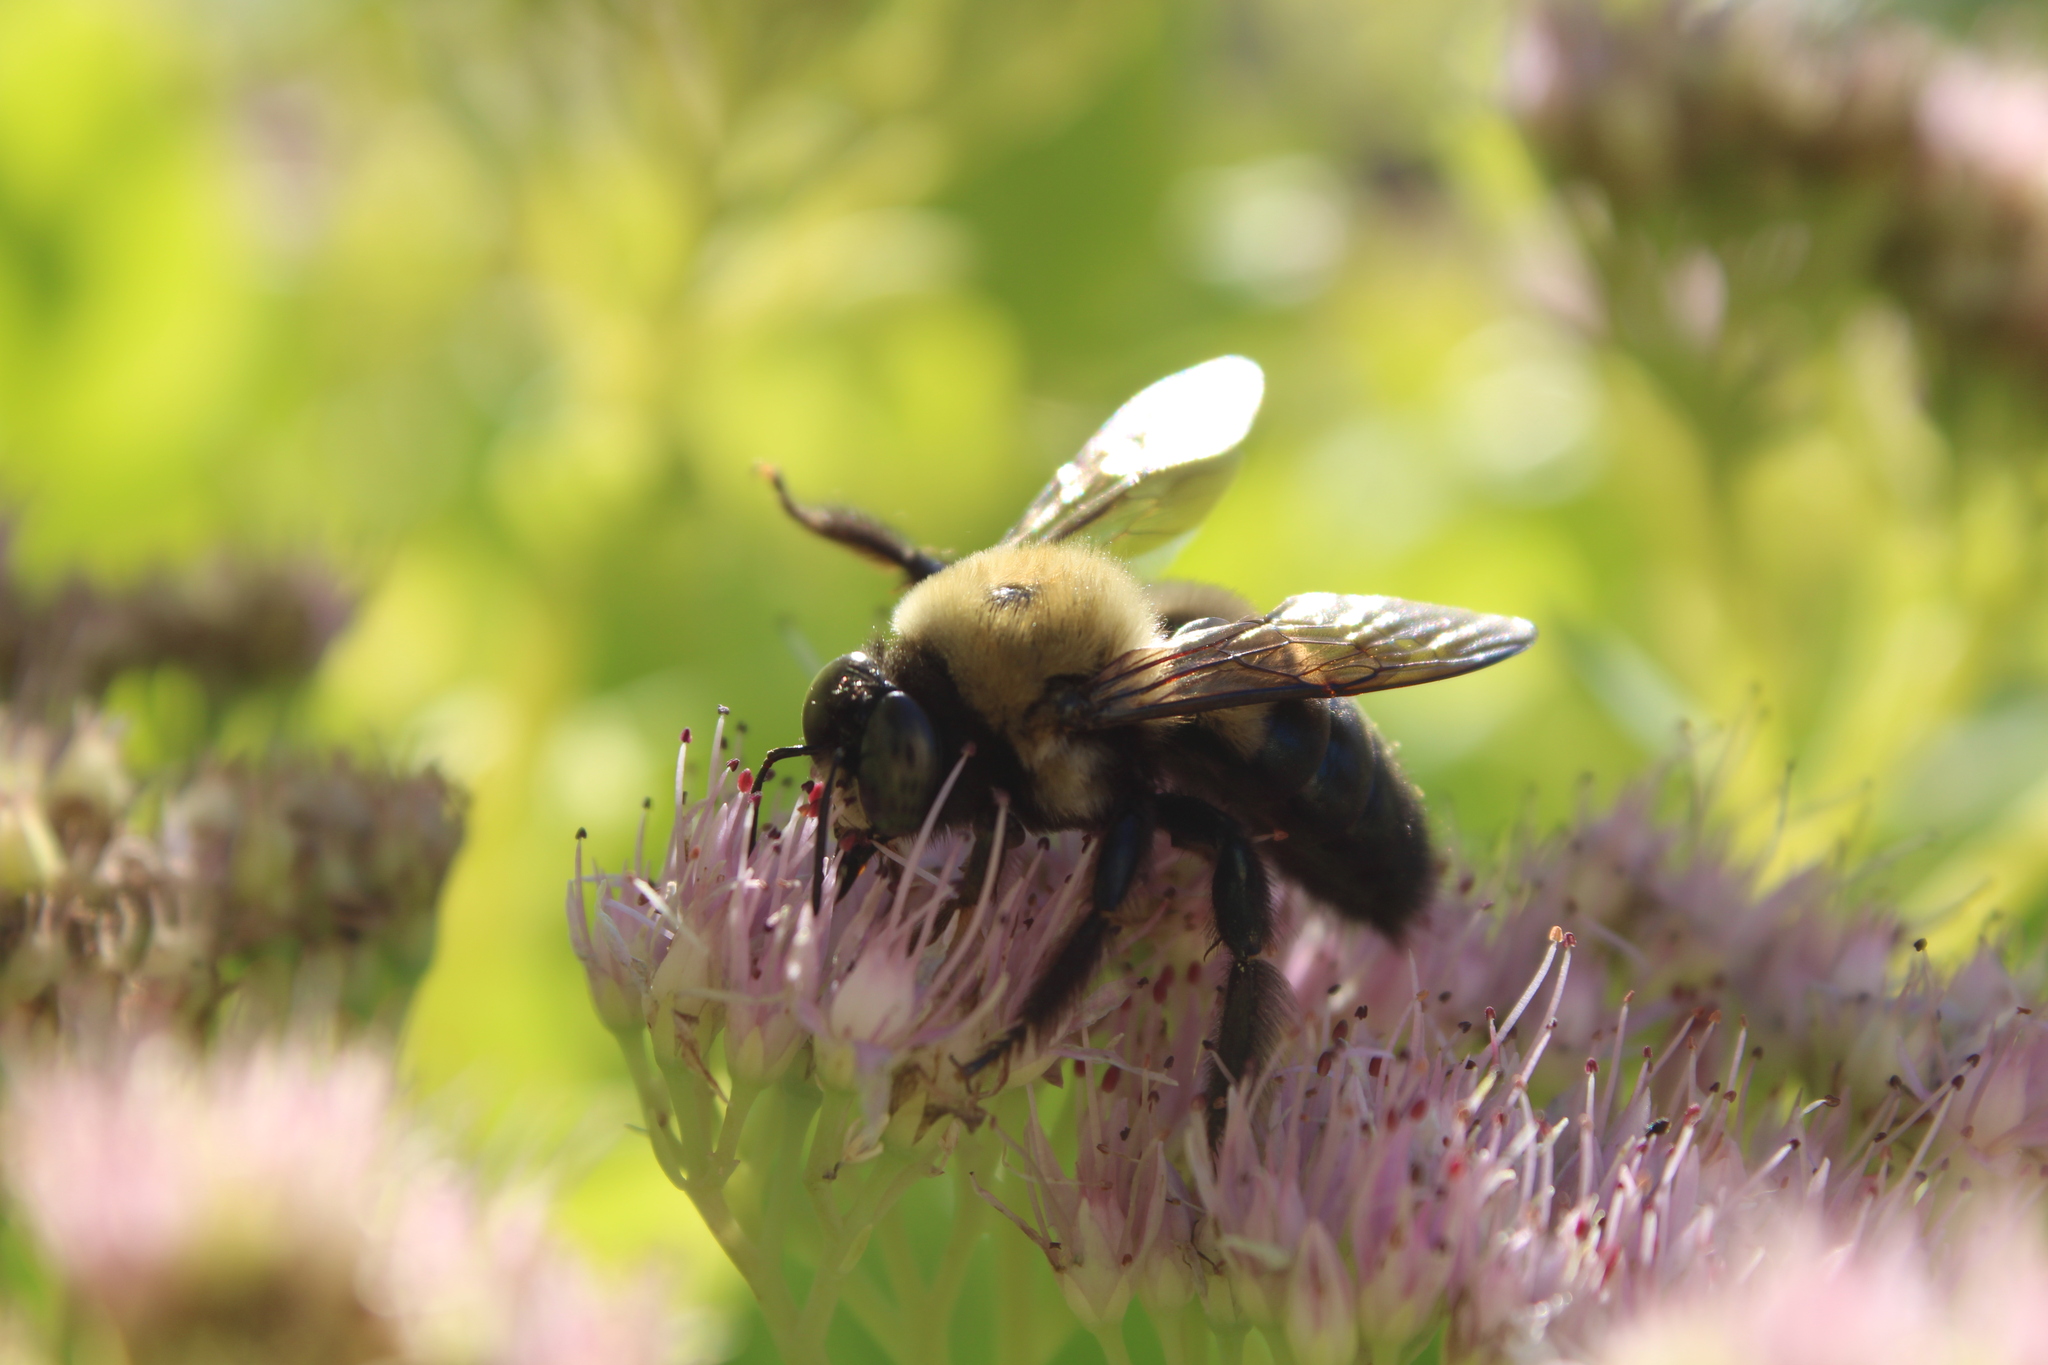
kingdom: Animalia
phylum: Arthropoda
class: Insecta
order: Hymenoptera
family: Apidae
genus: Xylocopa
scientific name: Xylocopa virginica
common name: Carpenter bee
